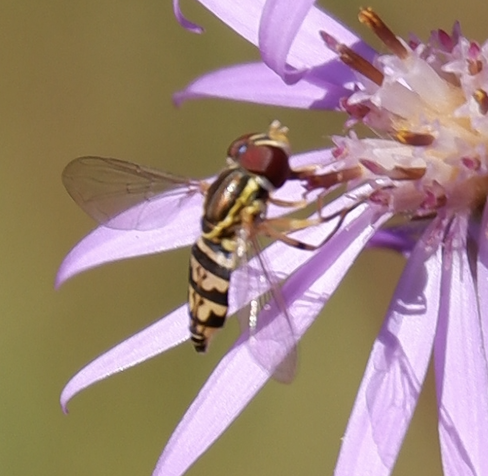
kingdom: Animalia
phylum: Arthropoda
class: Insecta
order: Diptera
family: Syrphidae
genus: Toxomerus
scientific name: Toxomerus geminatus
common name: Eastern calligrapher
